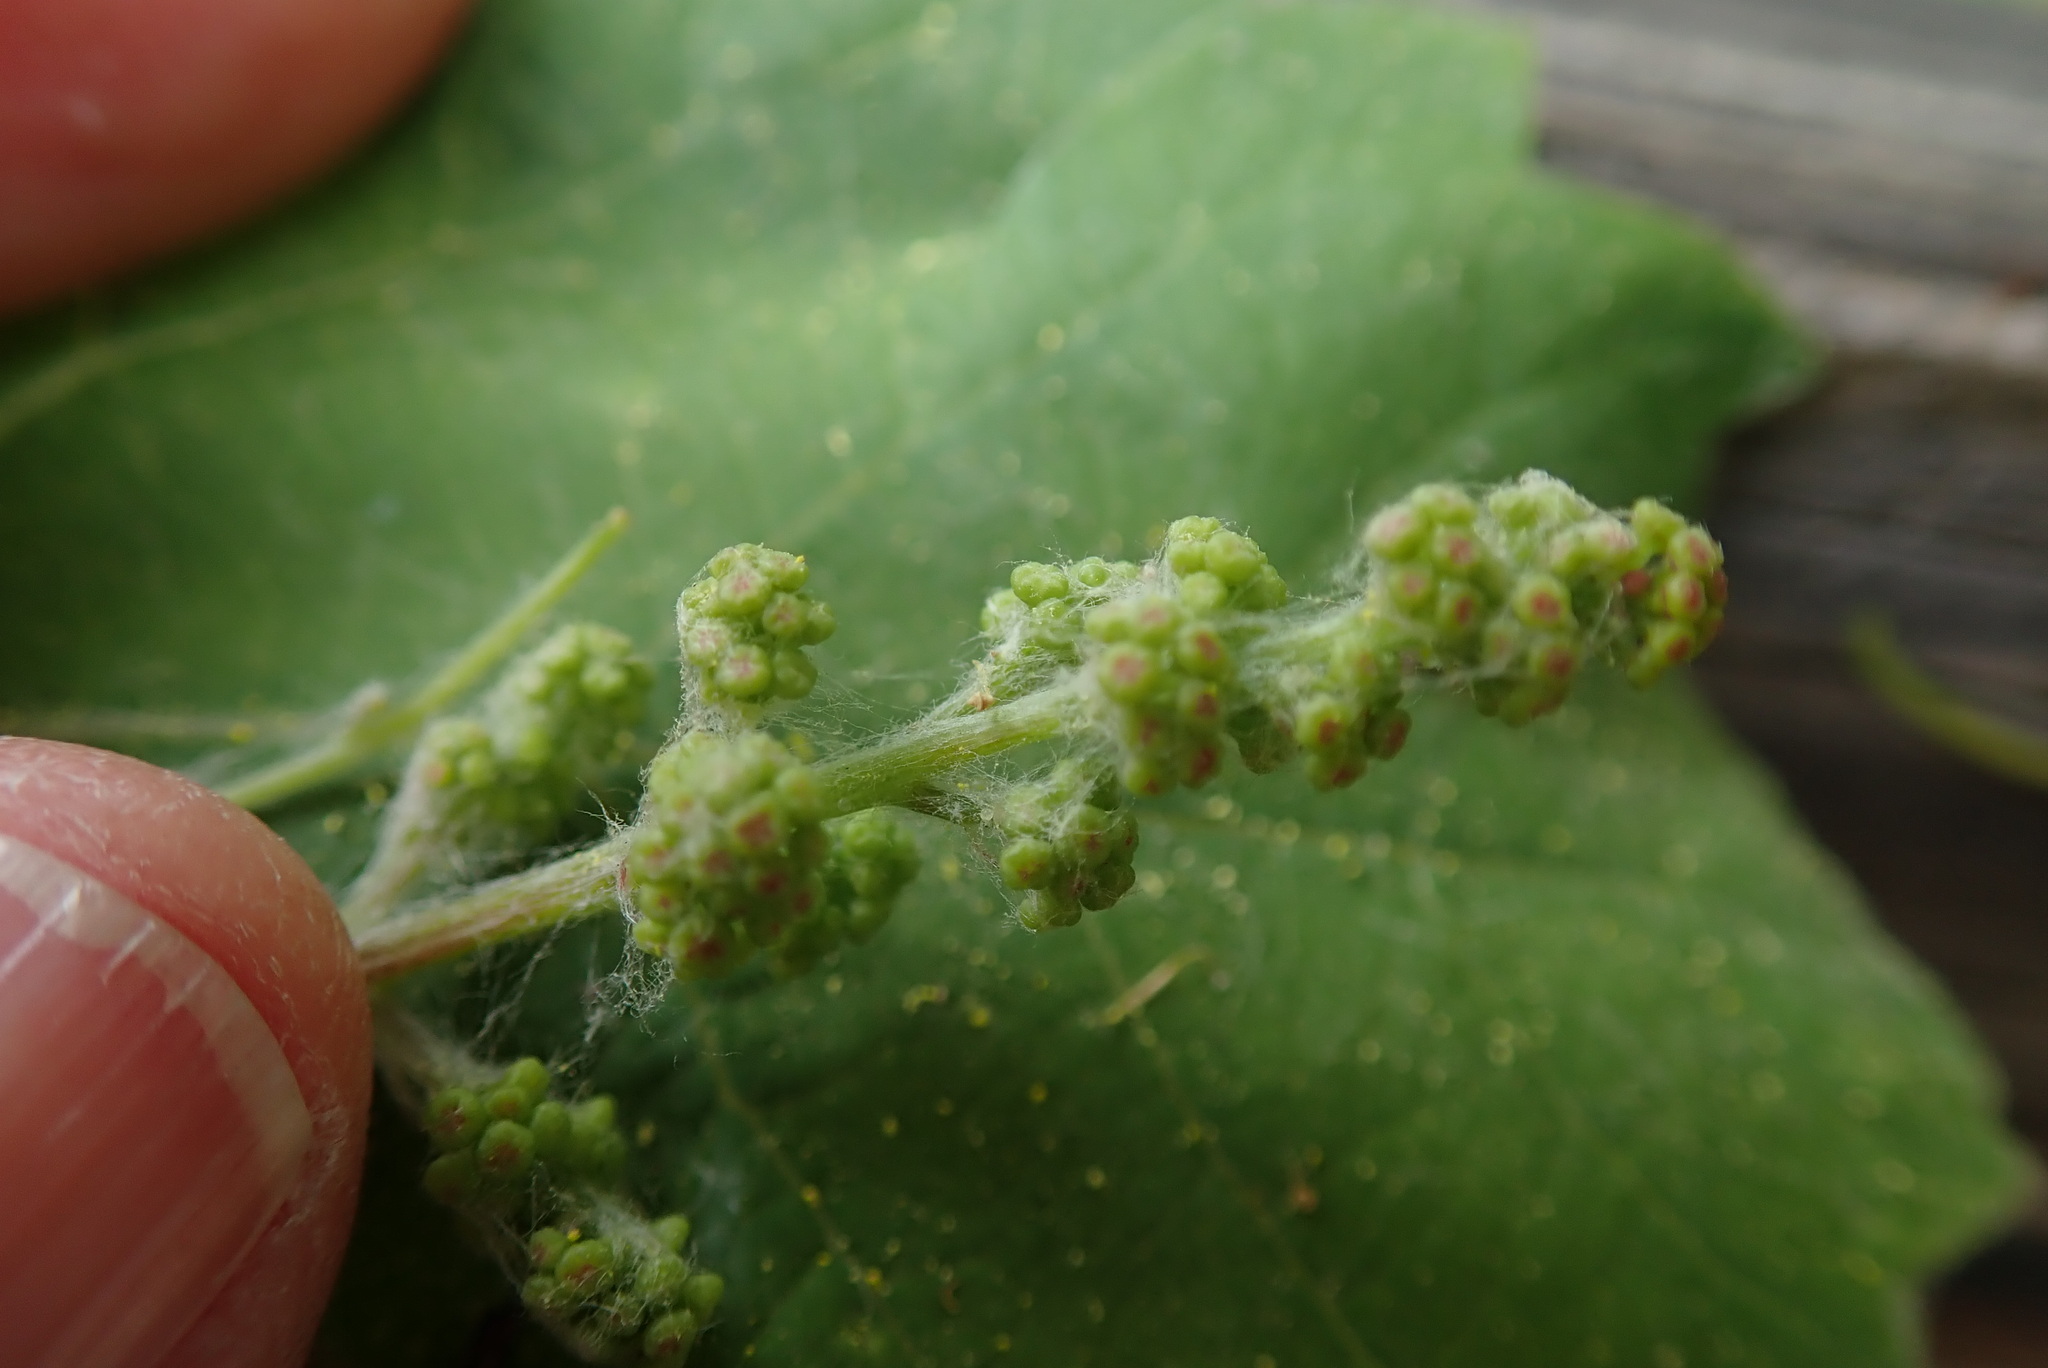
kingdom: Plantae
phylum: Tracheophyta
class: Magnoliopsida
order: Vitales
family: Vitaceae
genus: Vitis
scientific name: Vitis girdiana
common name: Desert wild grape
